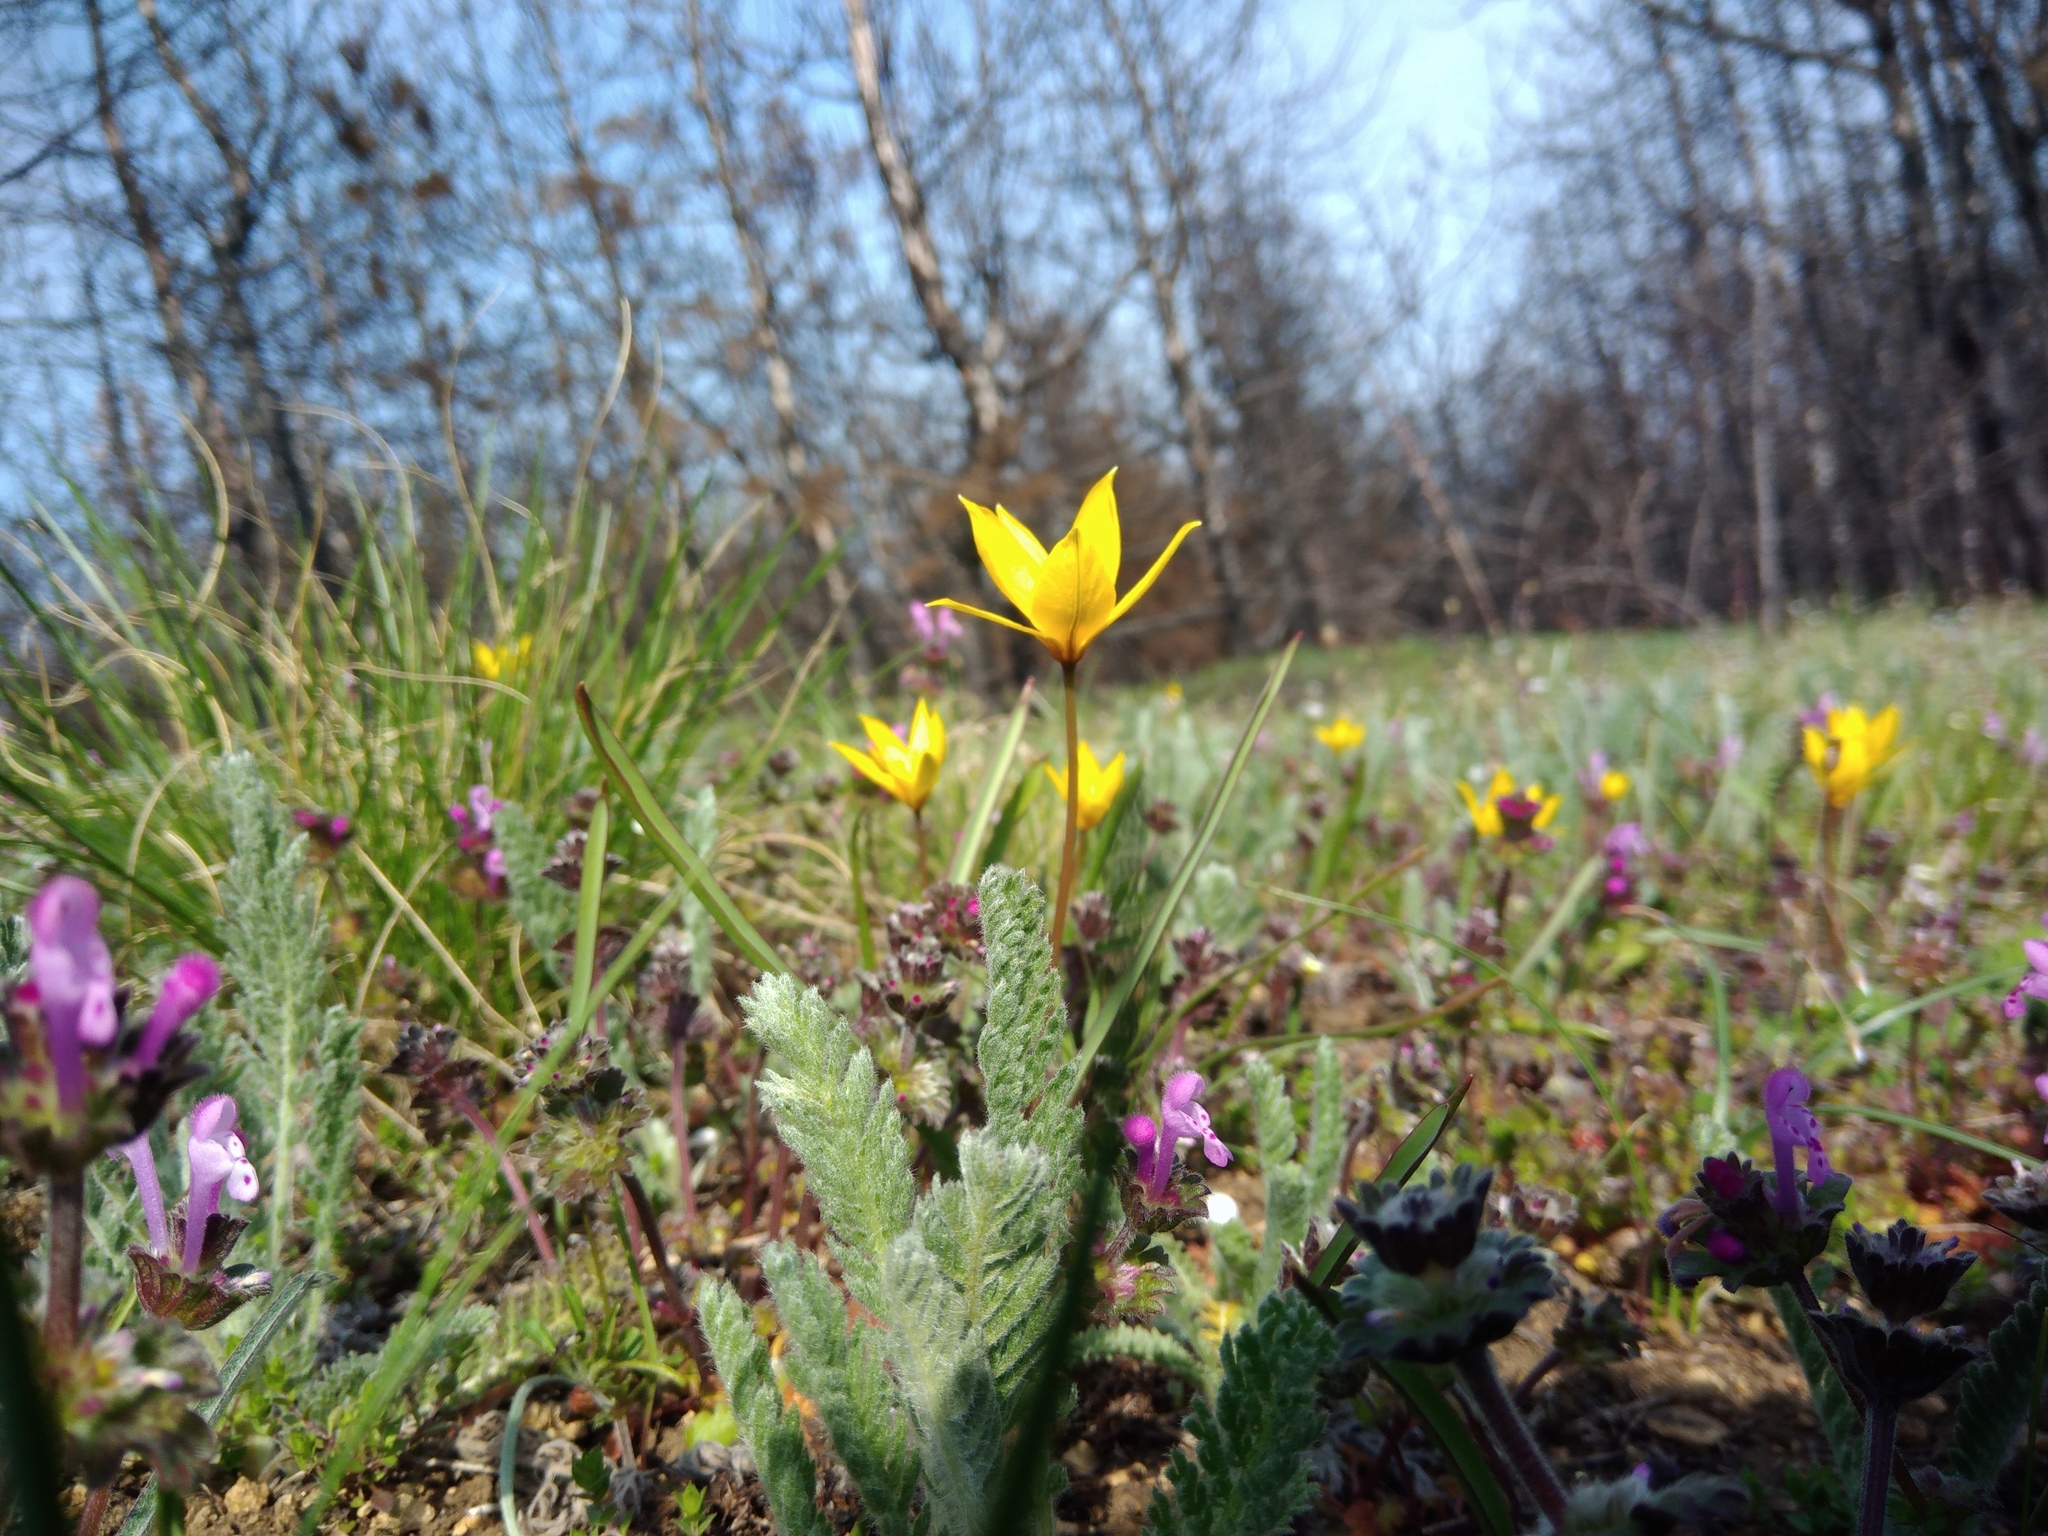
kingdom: Plantae
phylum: Tracheophyta
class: Liliopsida
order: Liliales
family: Liliaceae
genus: Tulipa
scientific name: Tulipa sylvestris
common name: Wild tulip
